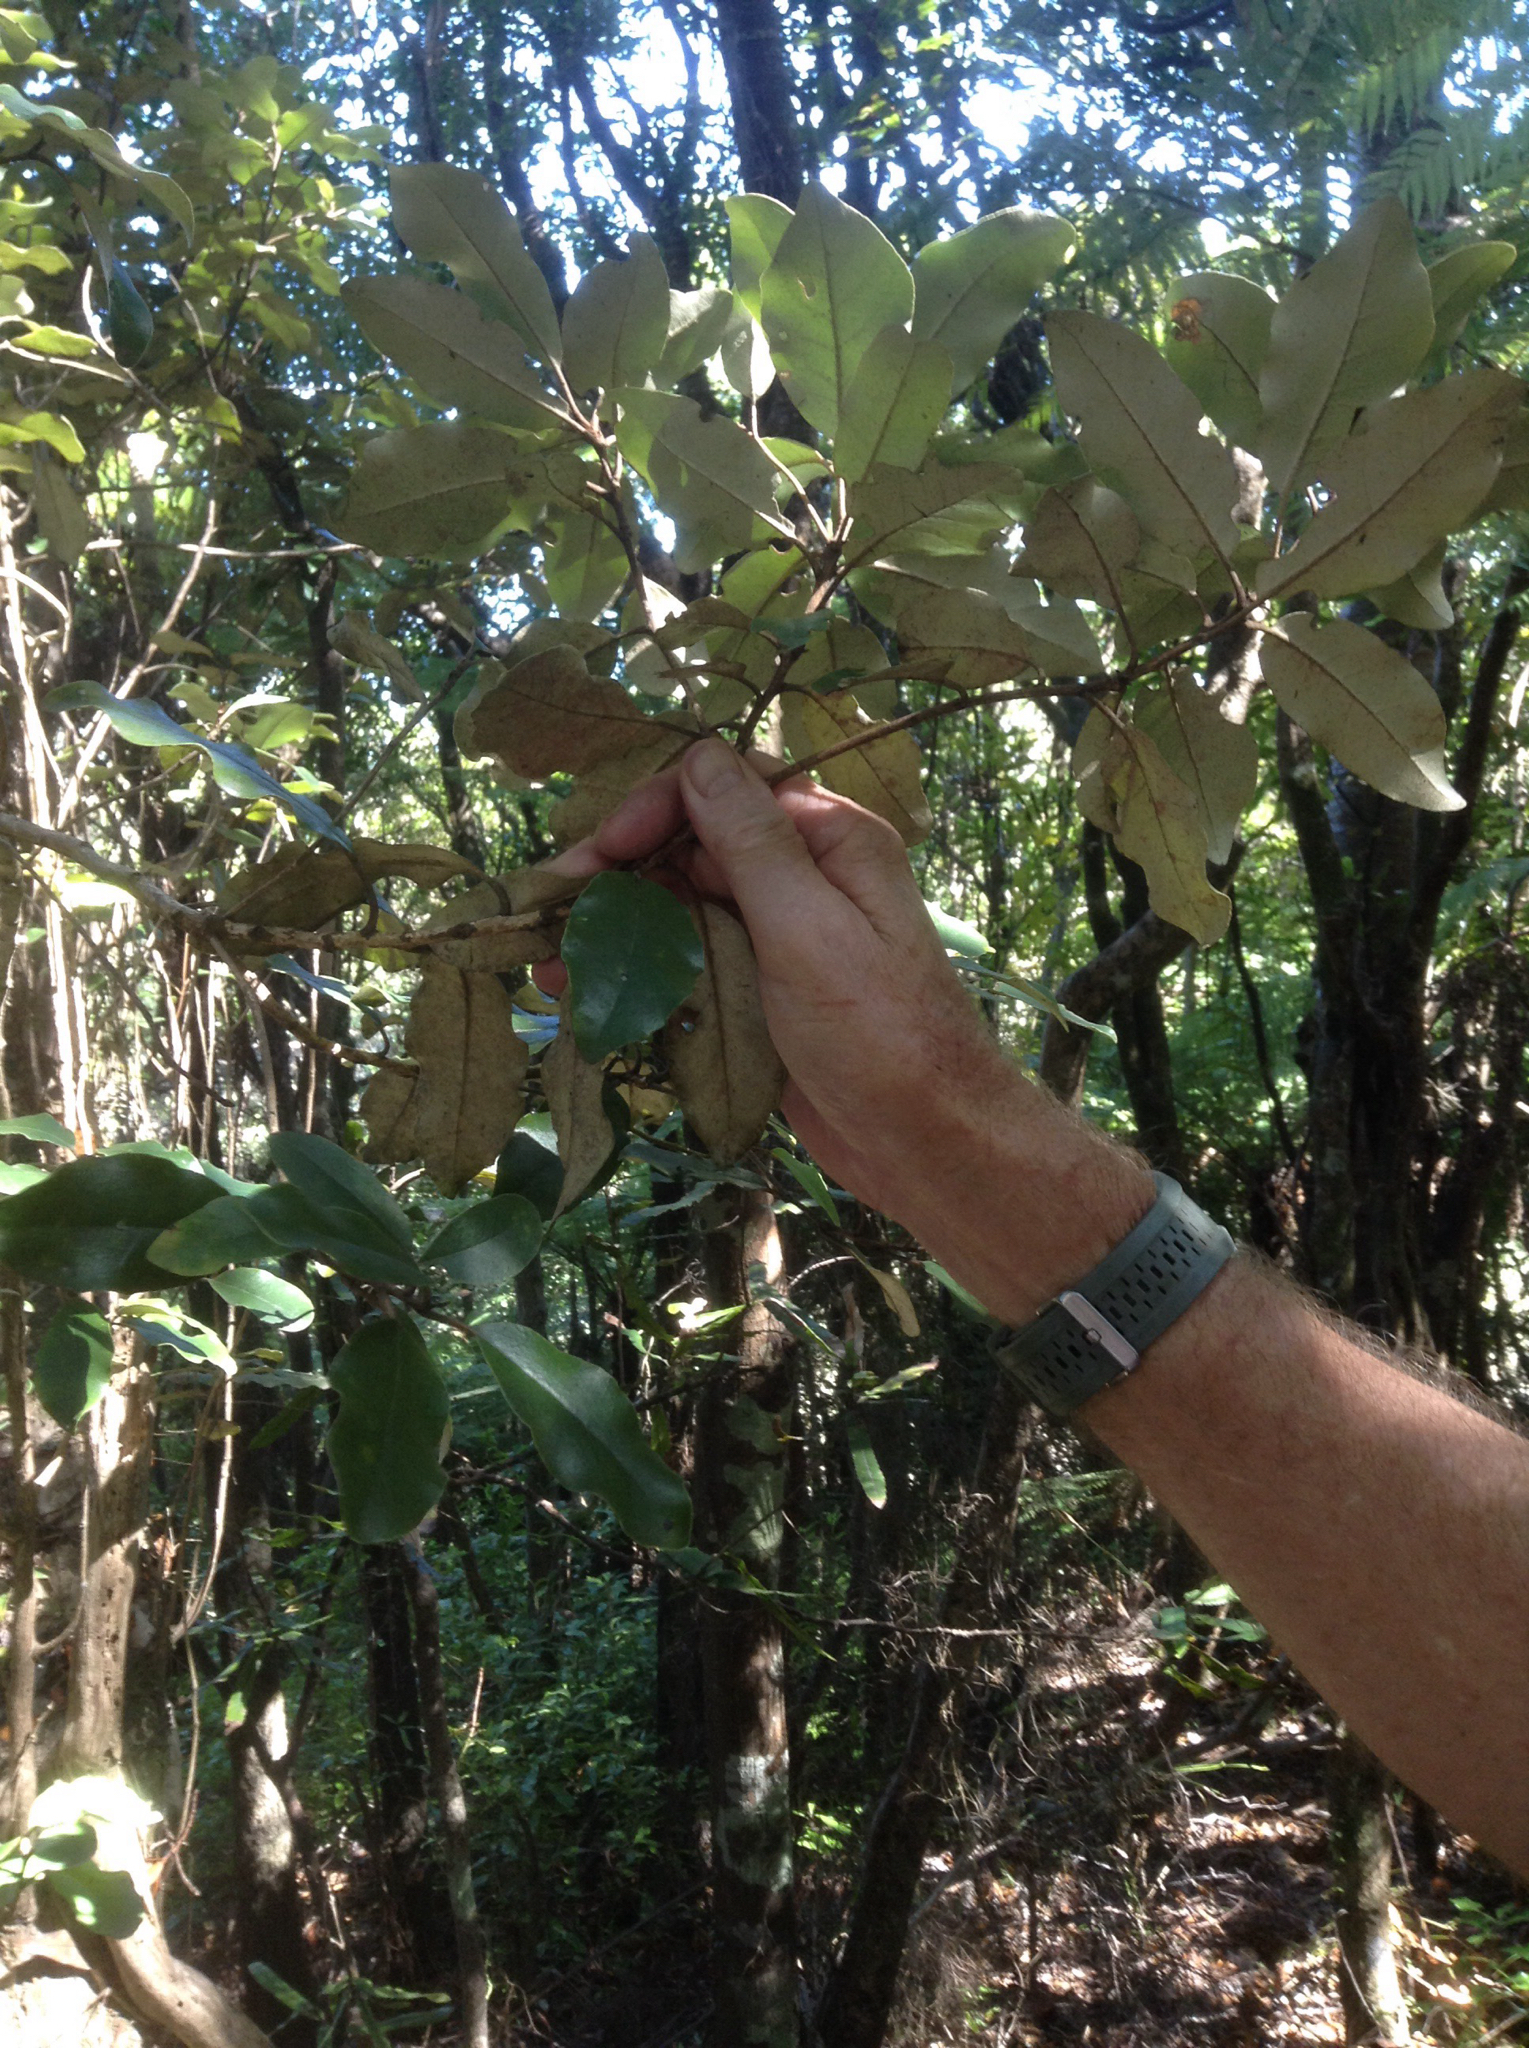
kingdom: Plantae
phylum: Tracheophyta
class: Magnoliopsida
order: Asterales
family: Asteraceae
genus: Olearia
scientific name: Olearia furfuracea
